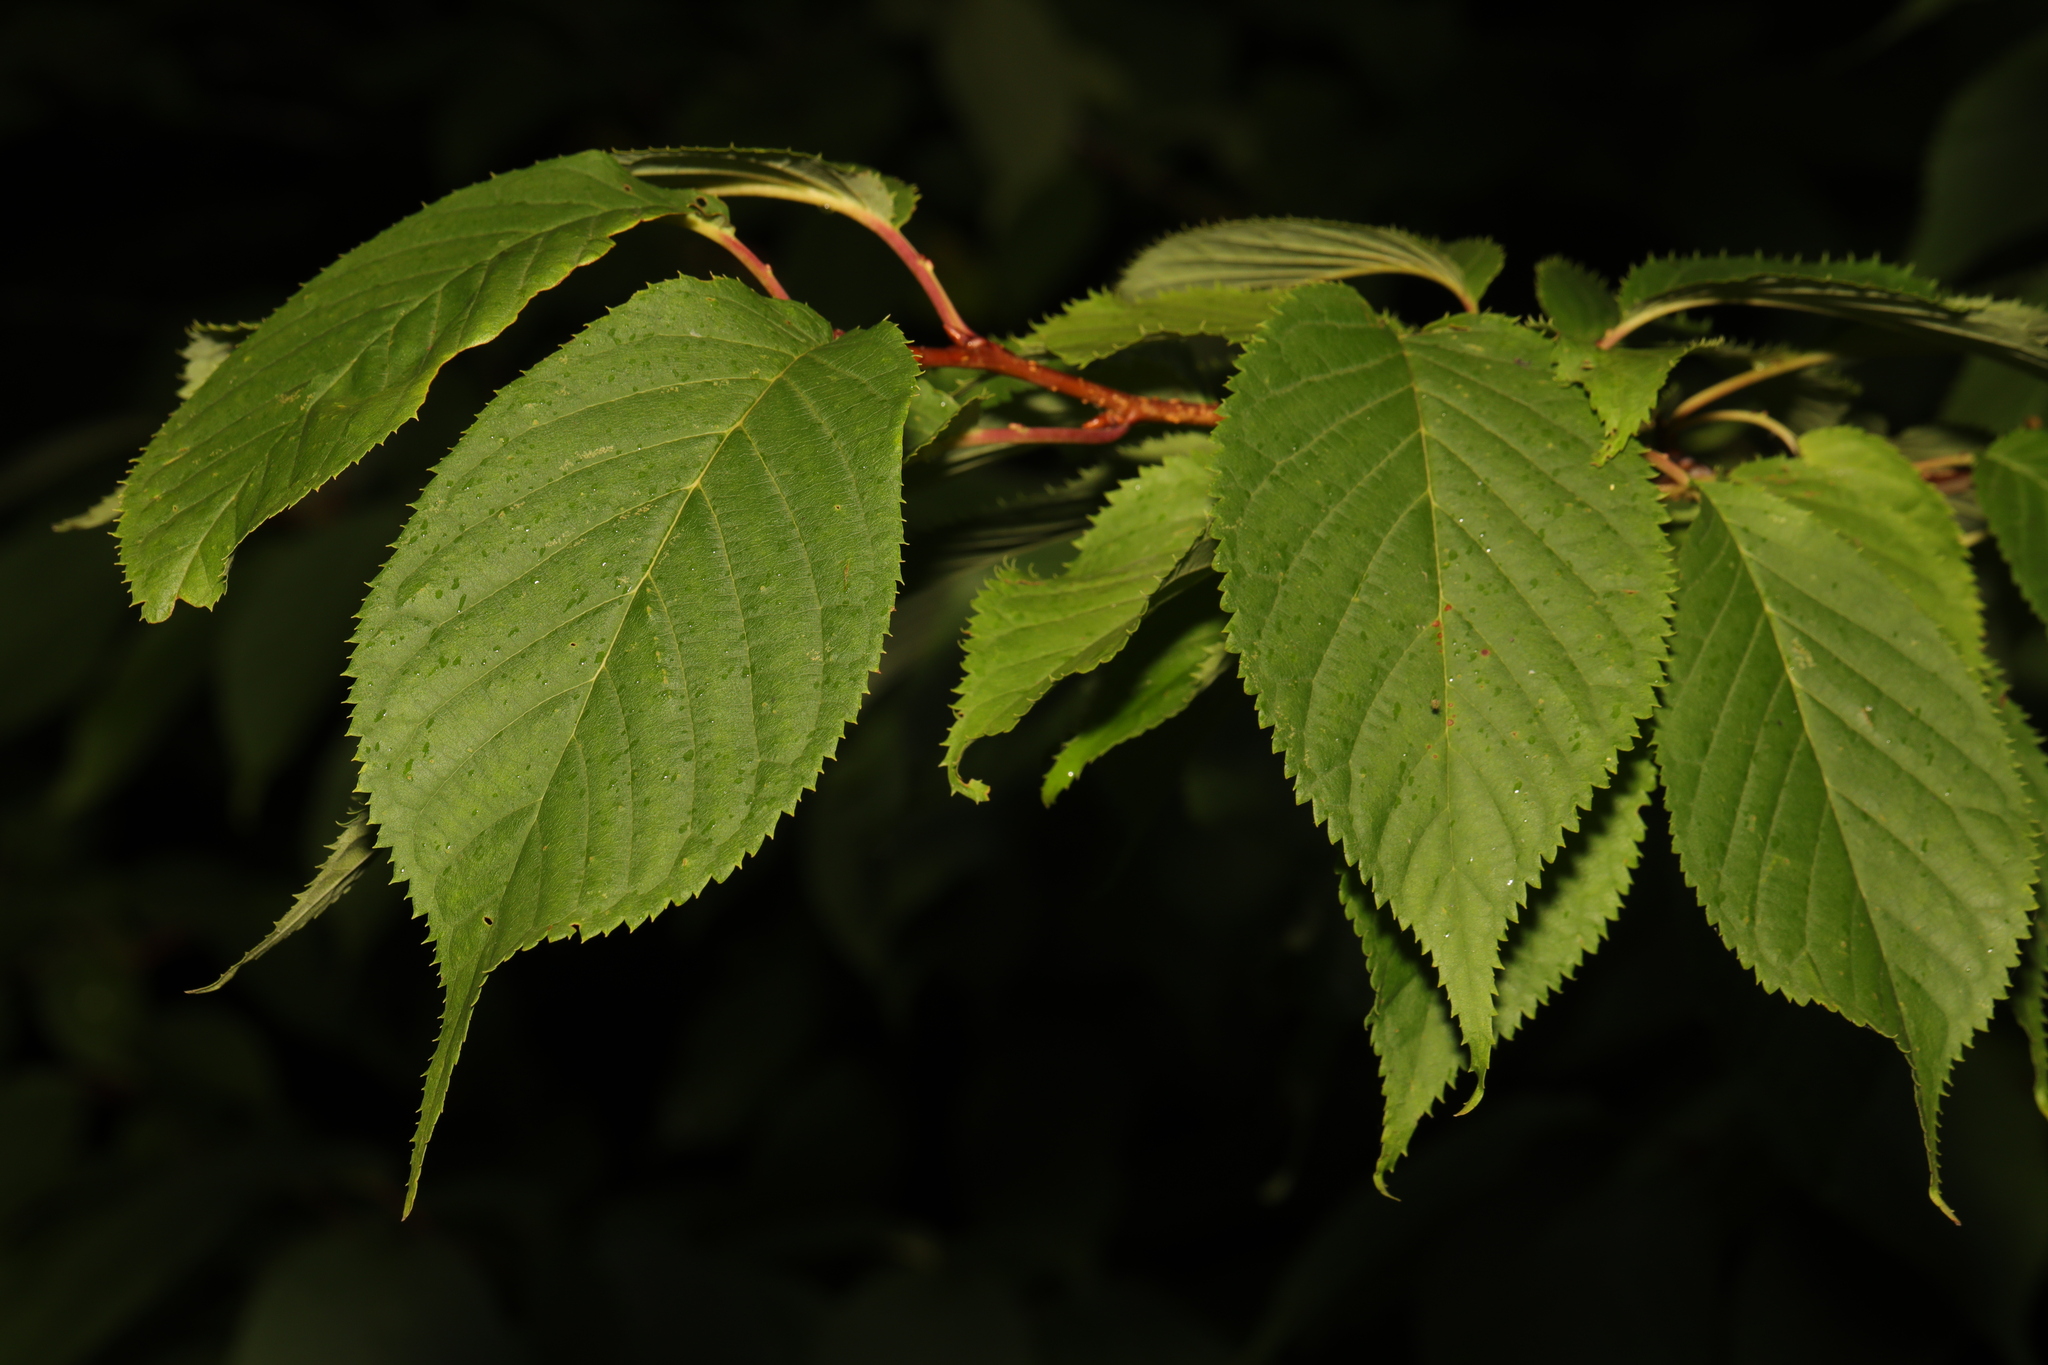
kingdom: Plantae
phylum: Tracheophyta
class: Magnoliopsida
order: Rosales
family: Rosaceae
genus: Prunus
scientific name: Prunus avium
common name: Sweet cherry
